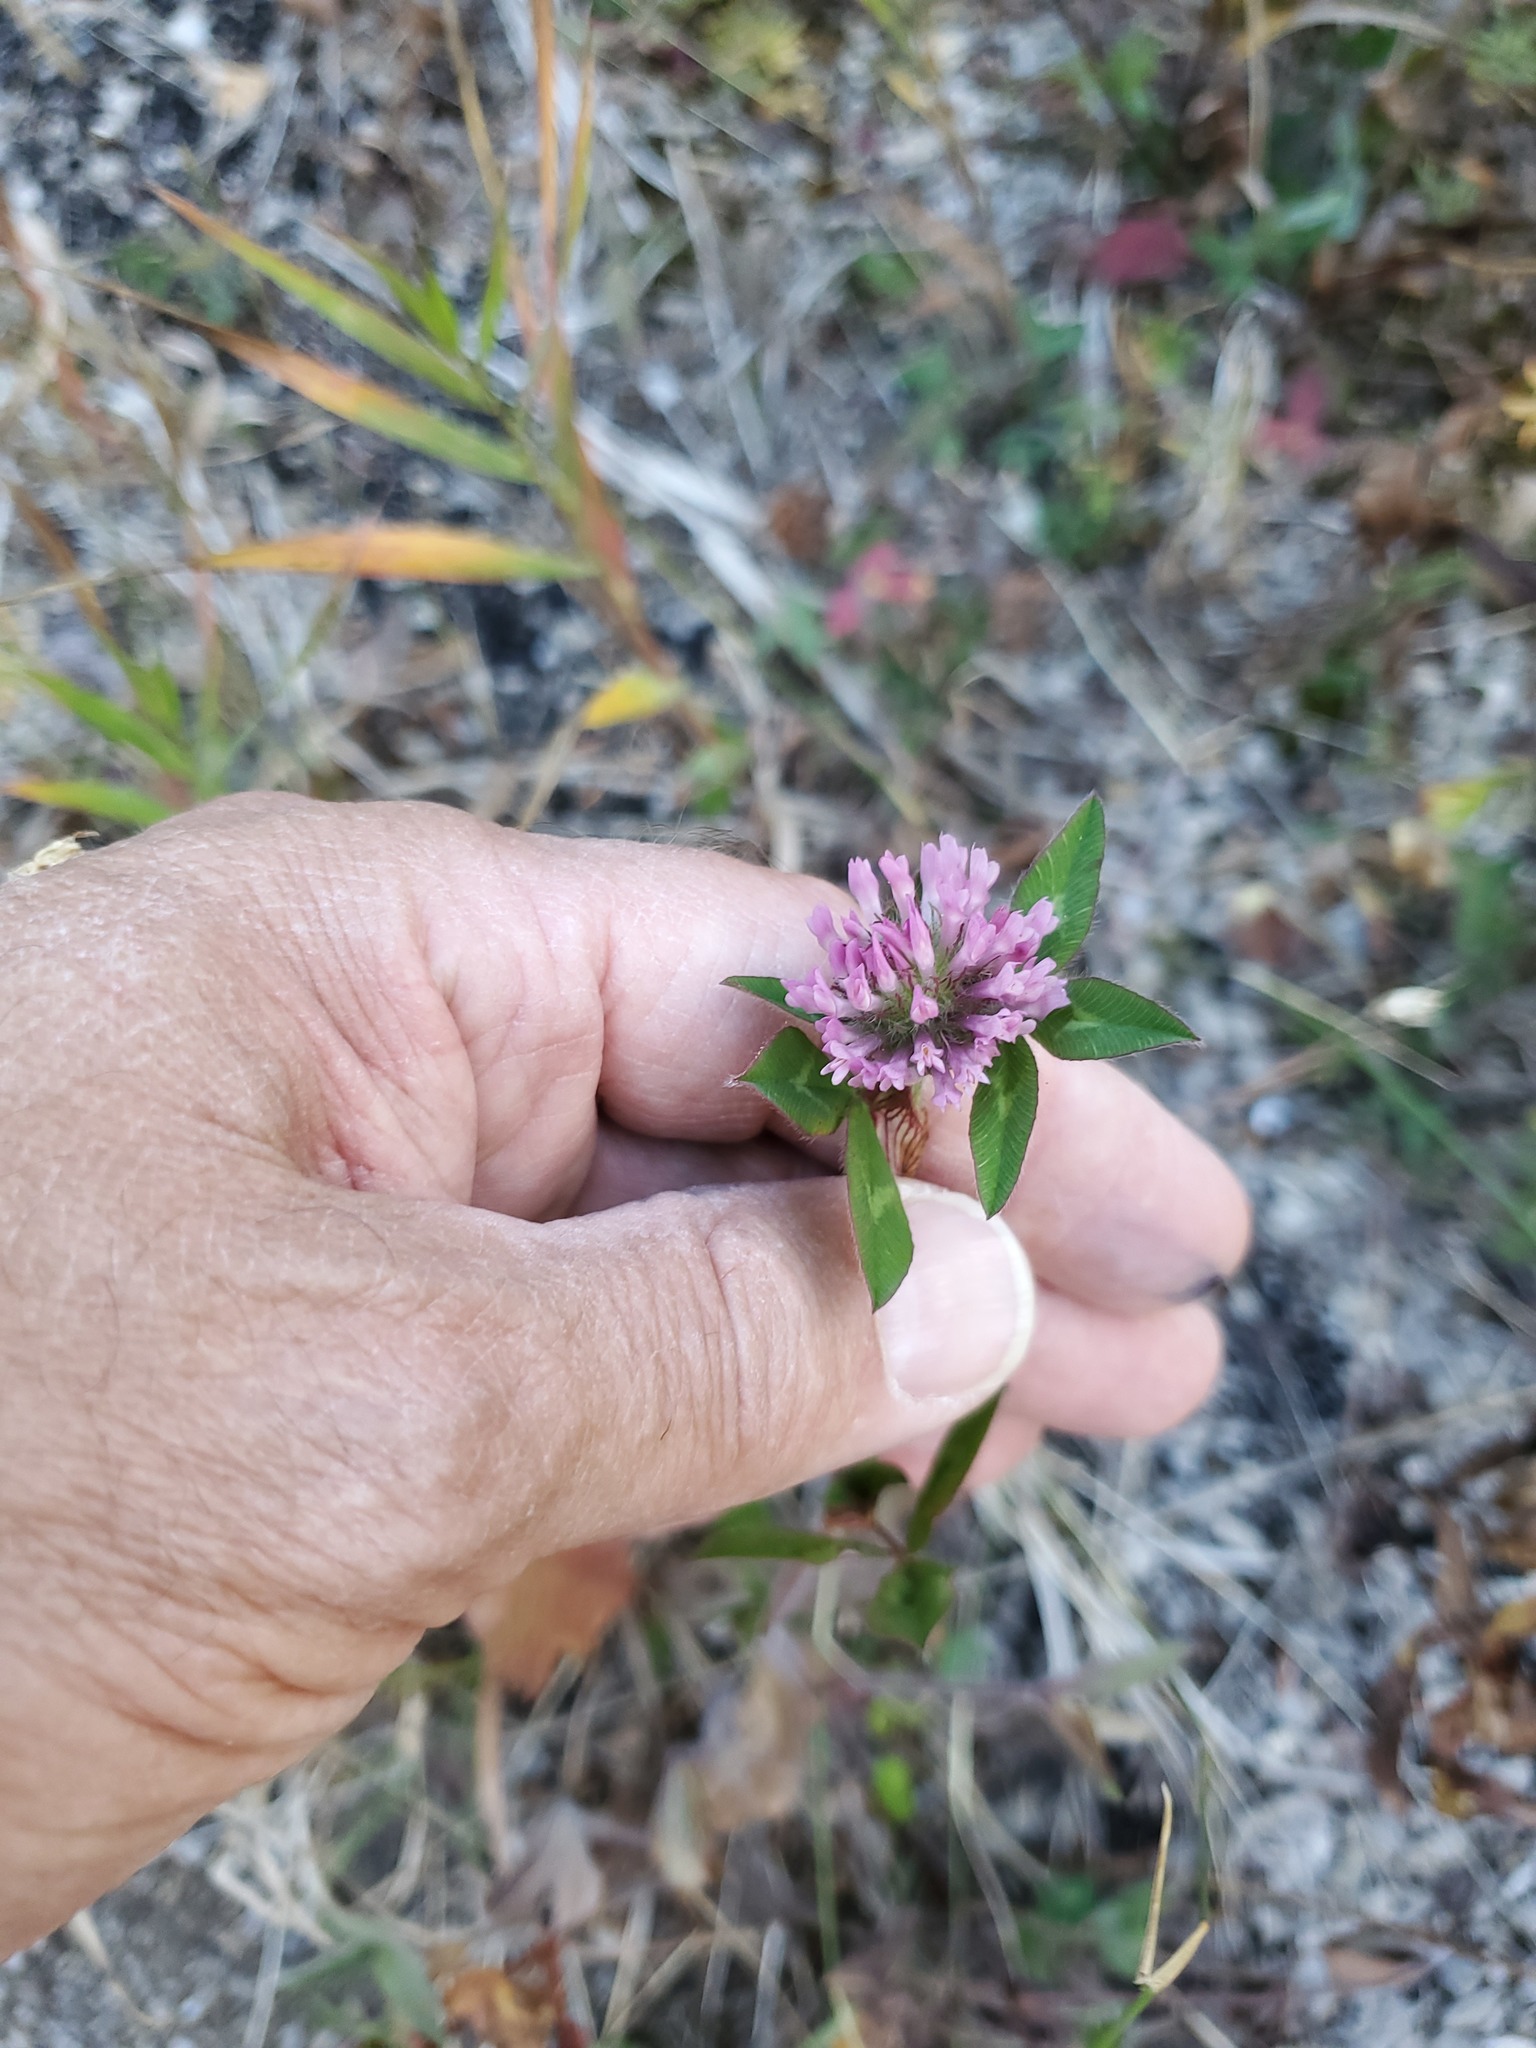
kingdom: Plantae
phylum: Tracheophyta
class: Magnoliopsida
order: Fabales
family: Fabaceae
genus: Trifolium
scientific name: Trifolium pratense
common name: Red clover
